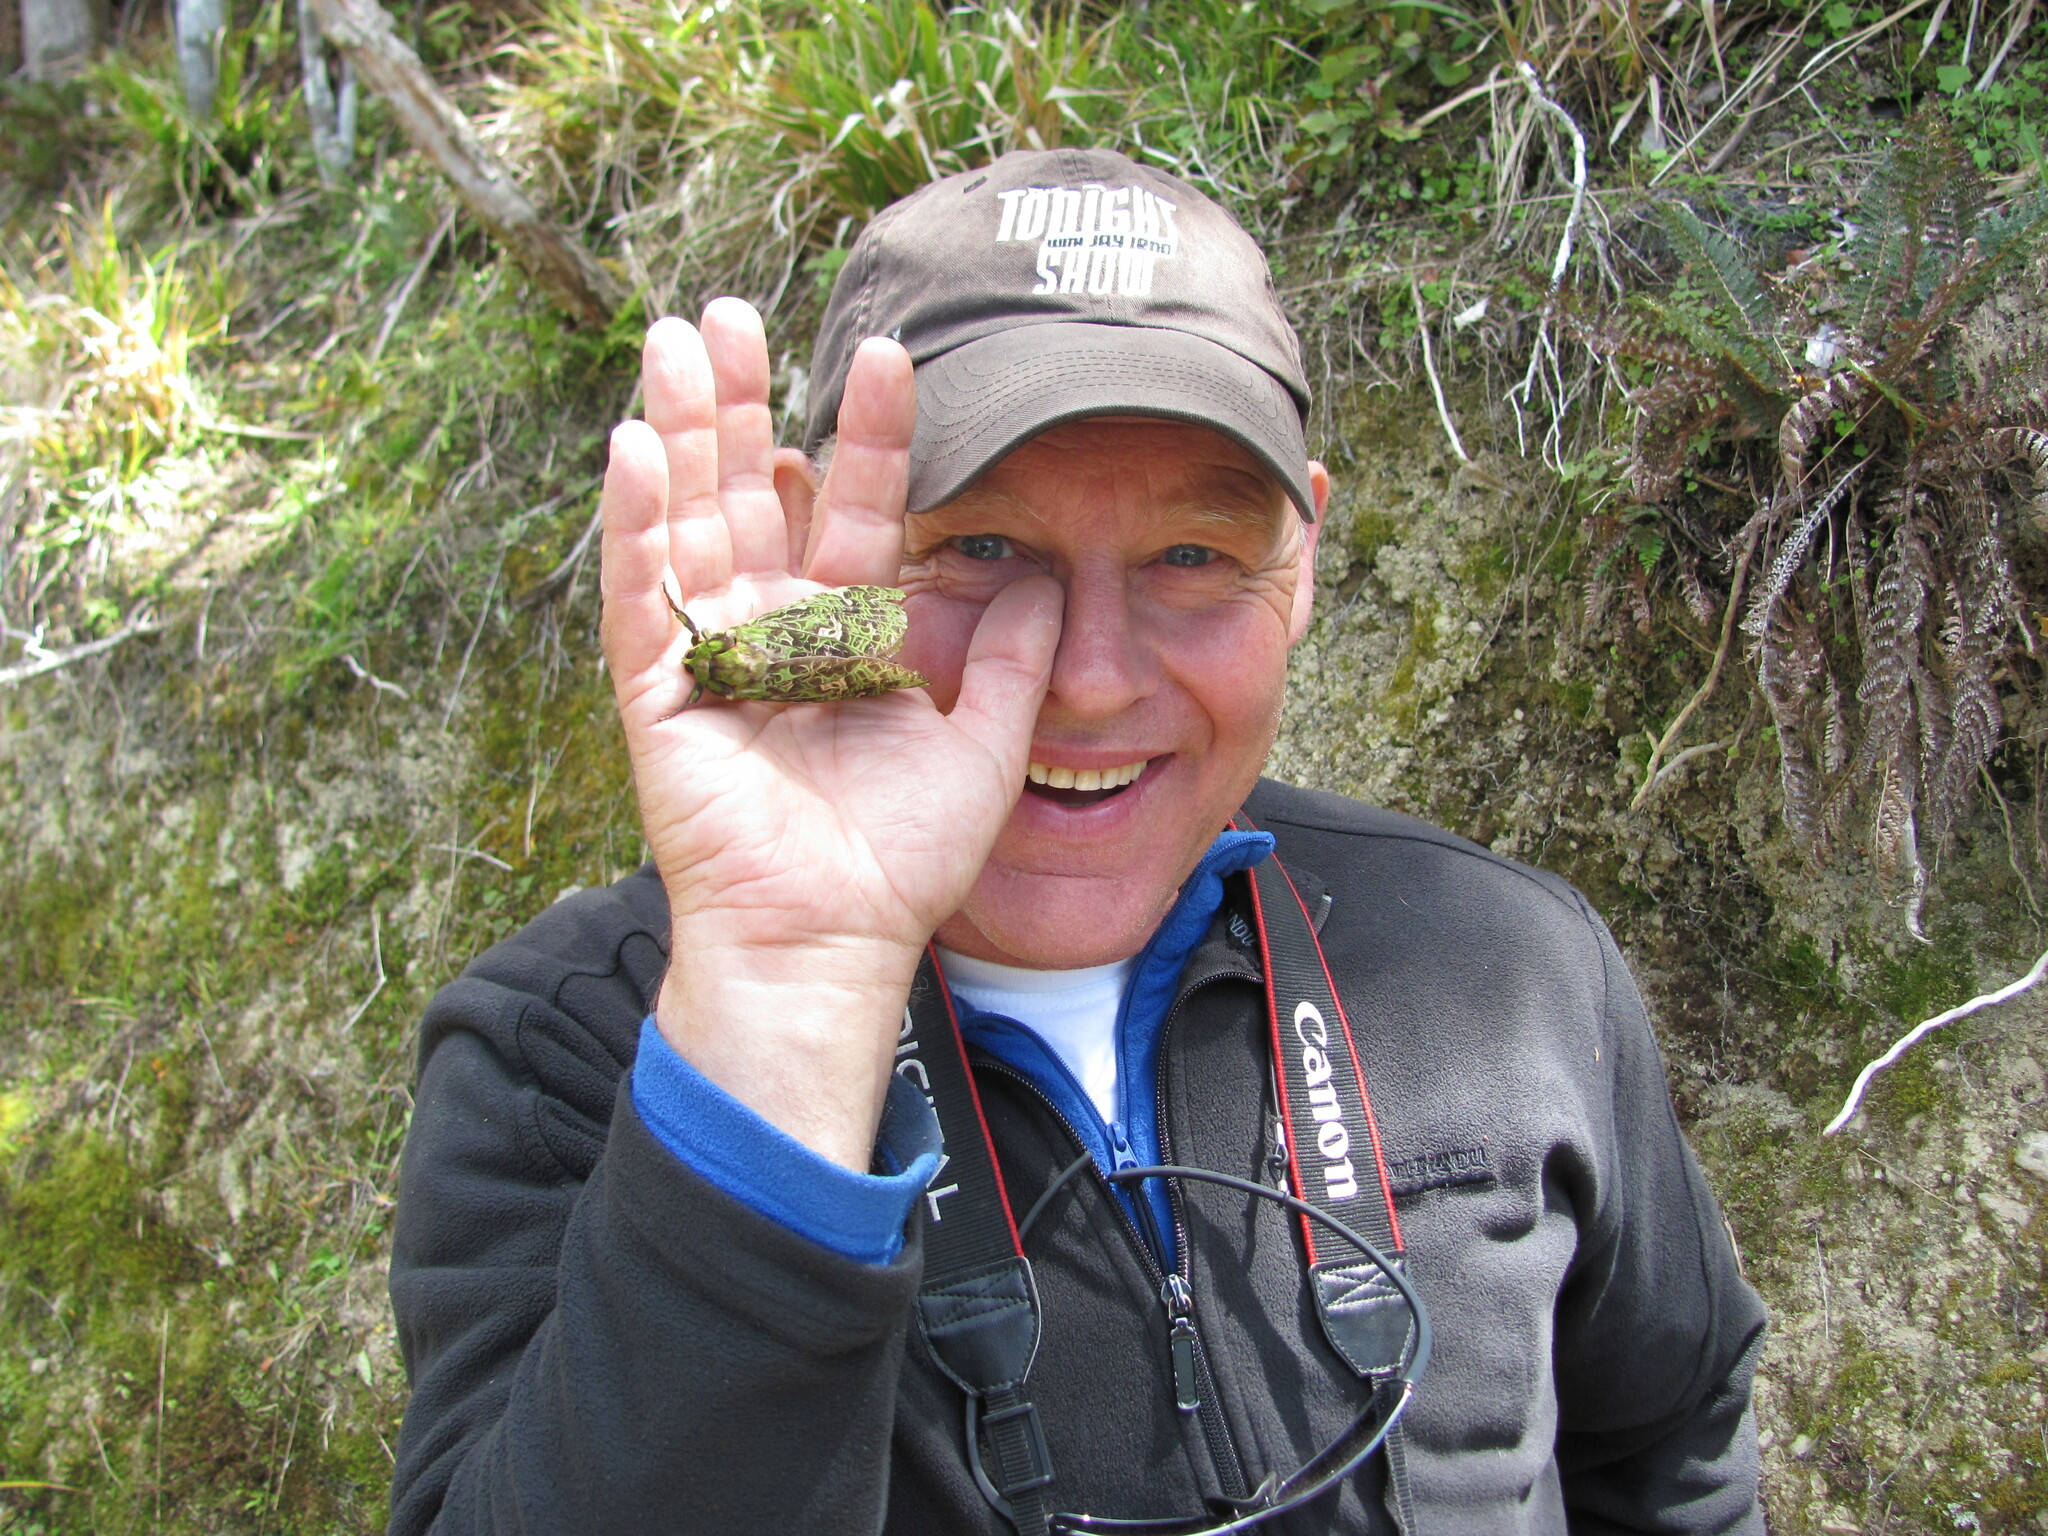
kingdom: Animalia
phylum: Arthropoda
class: Insecta
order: Lepidoptera
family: Hepialidae
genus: Aenetus
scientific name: Aenetus virescens
